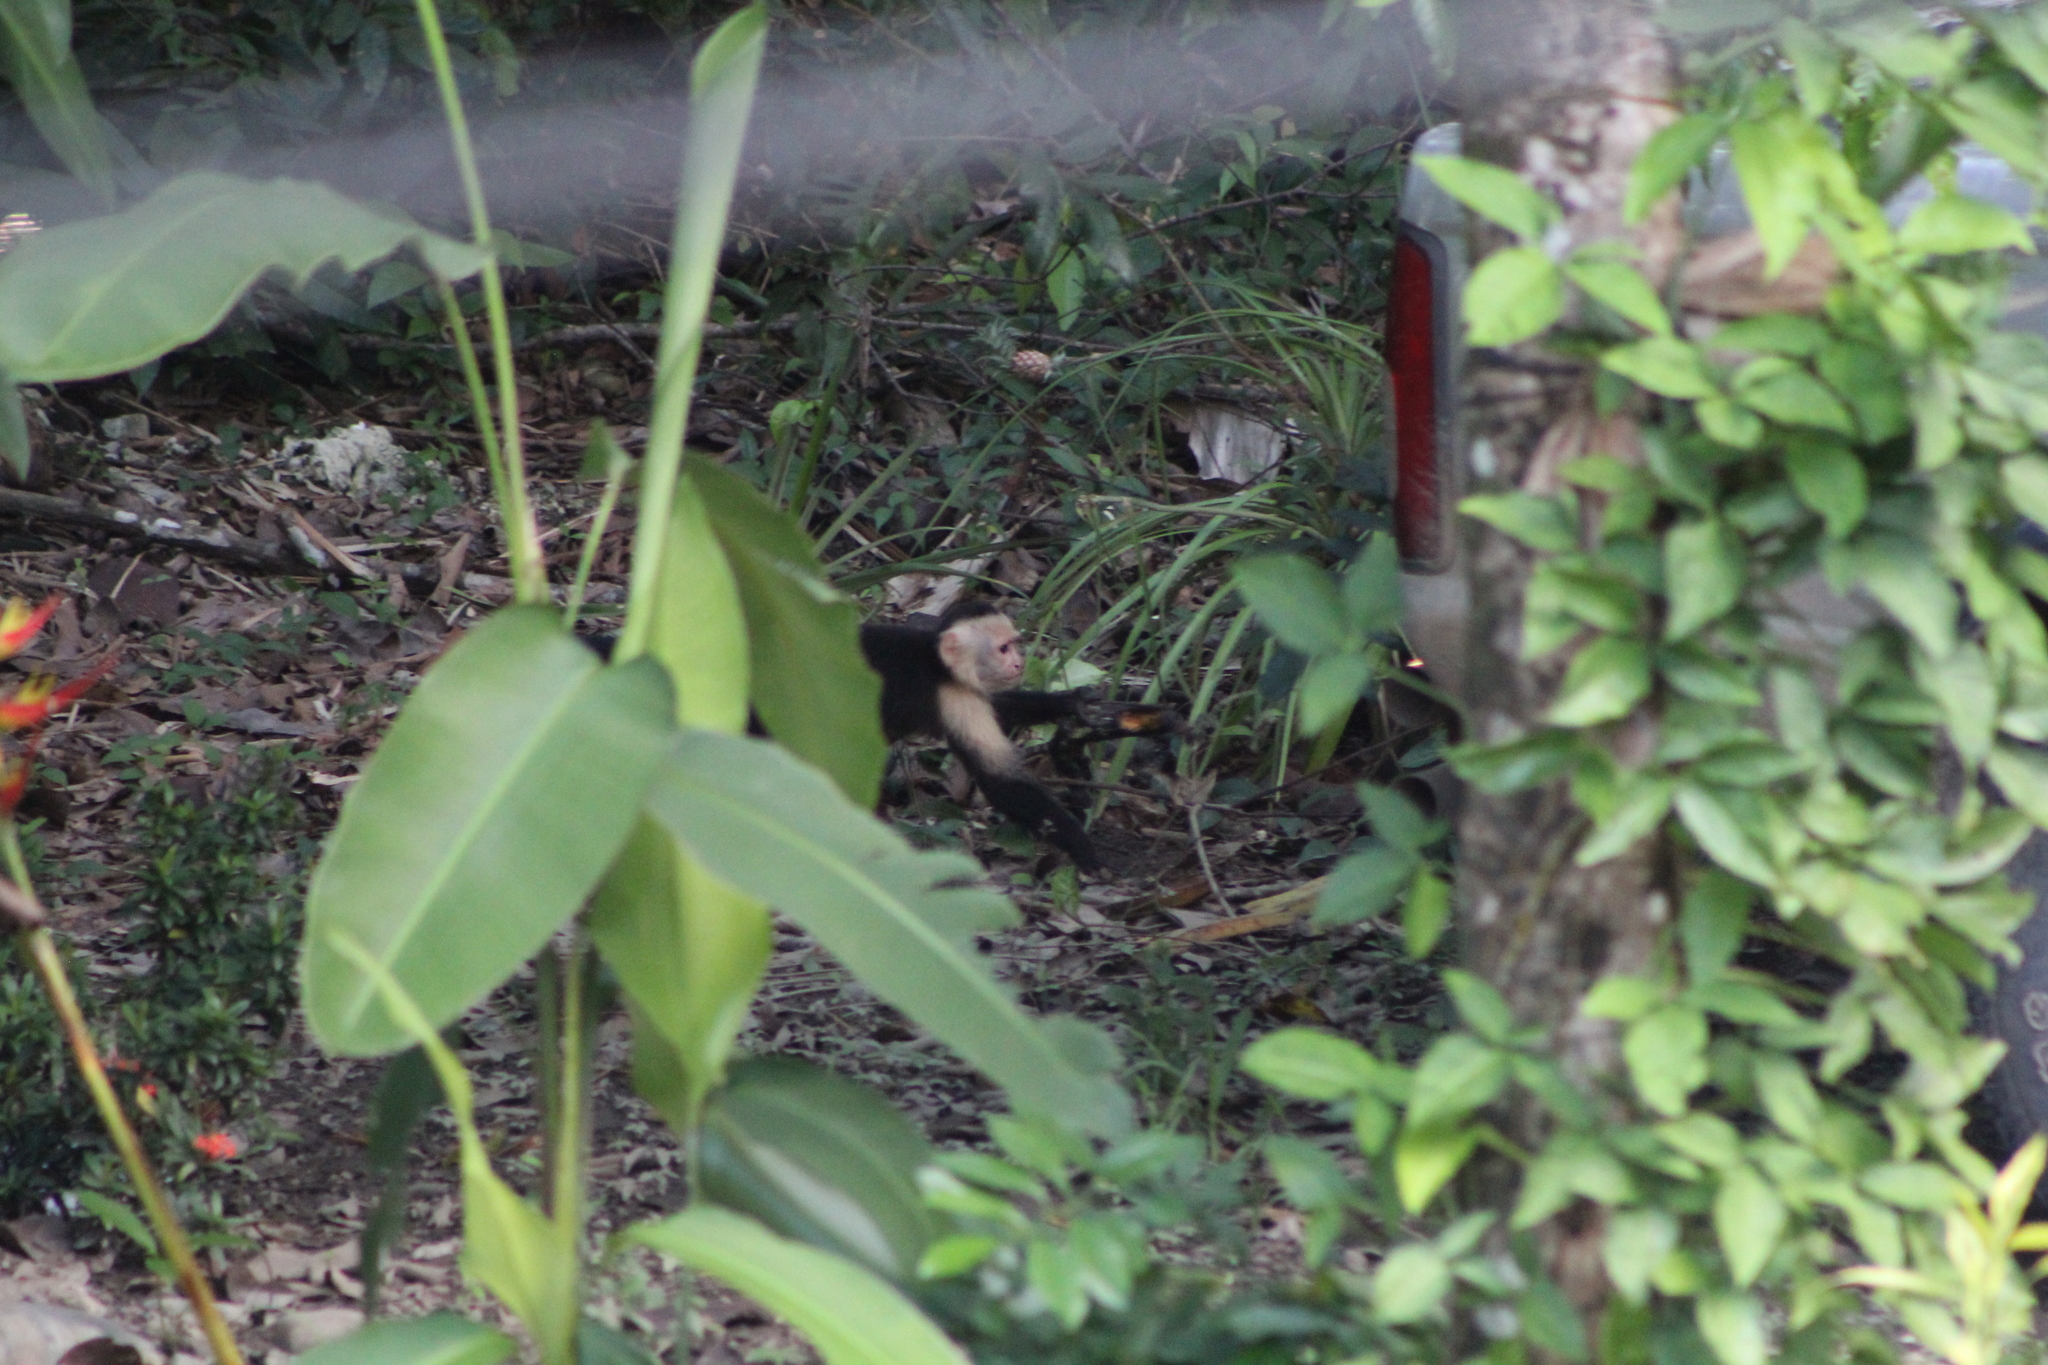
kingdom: Animalia
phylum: Chordata
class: Mammalia
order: Primates
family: Cebidae
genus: Cebus
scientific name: Cebus imitator
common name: Panamanian white-faced capuchin
